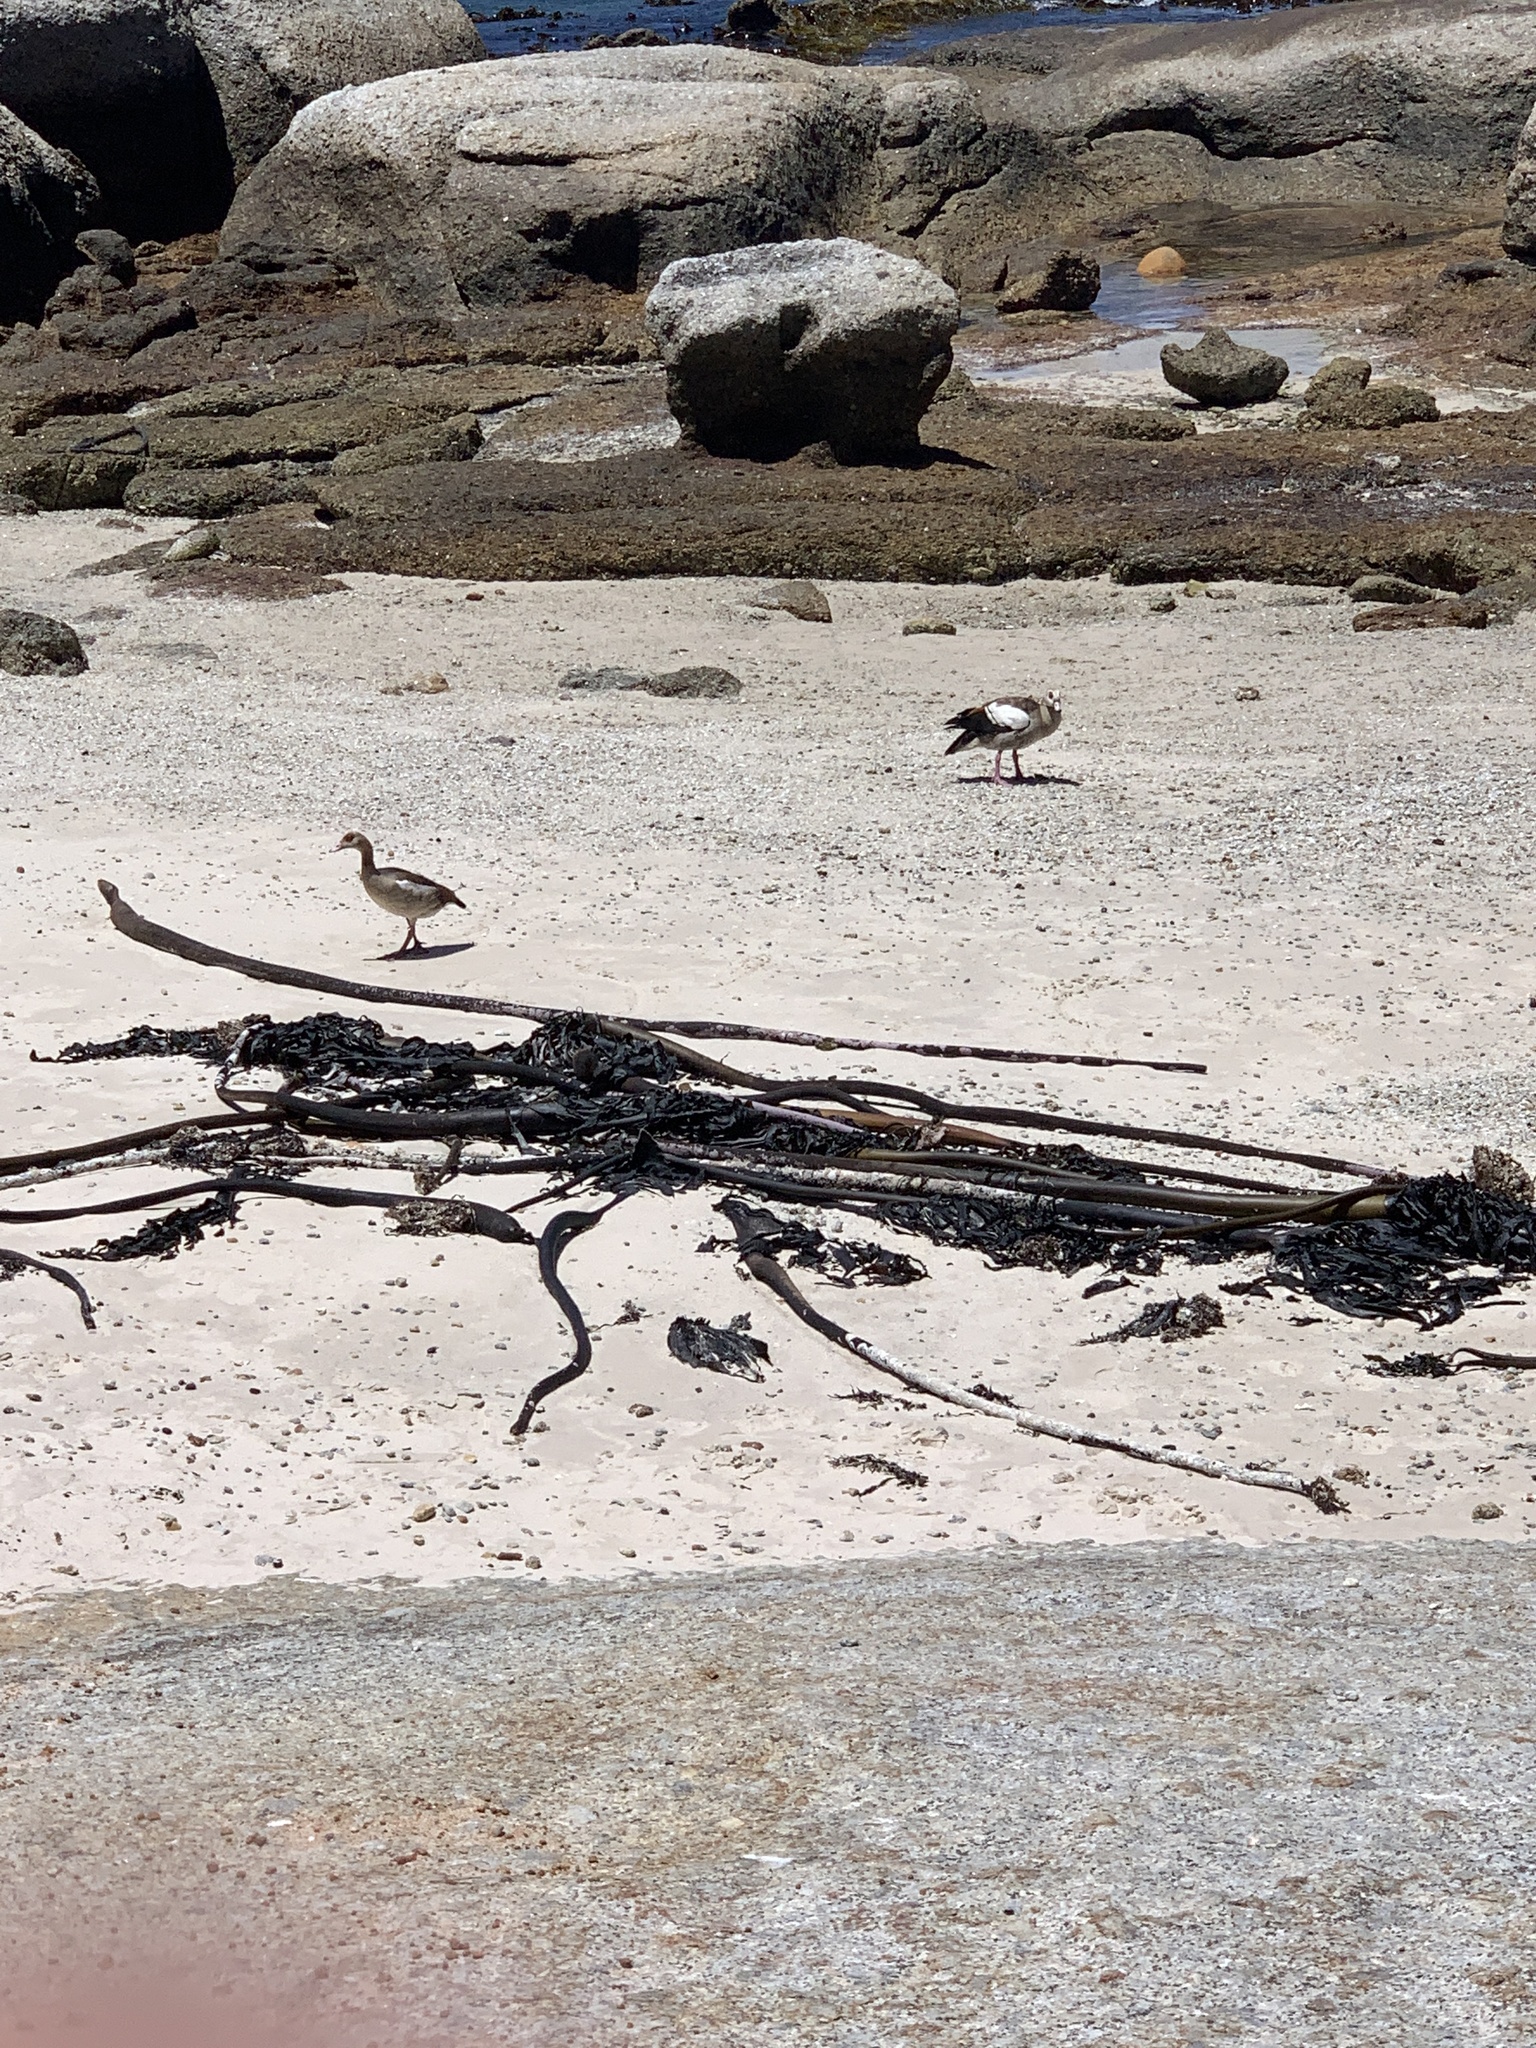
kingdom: Animalia
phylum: Chordata
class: Aves
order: Anseriformes
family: Anatidae
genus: Alopochen
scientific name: Alopochen aegyptiaca
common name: Egyptian goose
